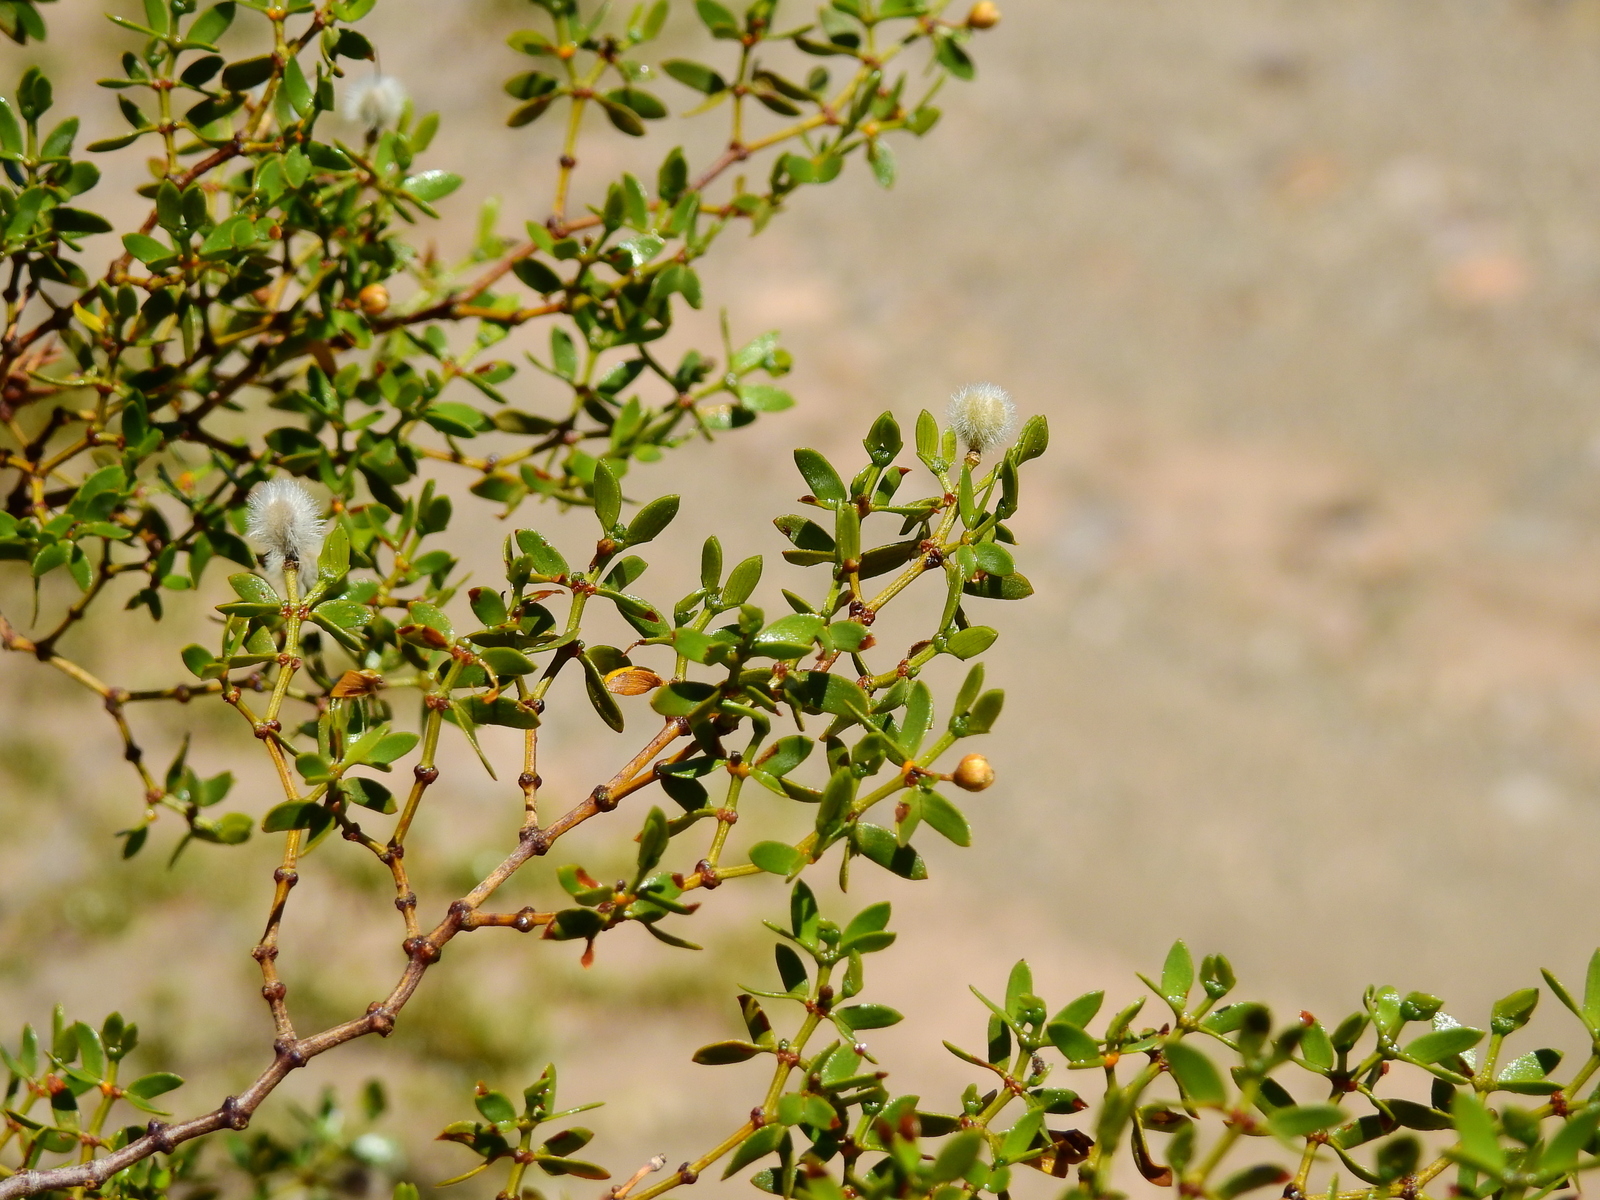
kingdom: Plantae
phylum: Tracheophyta
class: Magnoliopsida
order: Zygophyllales
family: Zygophyllaceae
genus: Larrea
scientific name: Larrea divaricata
